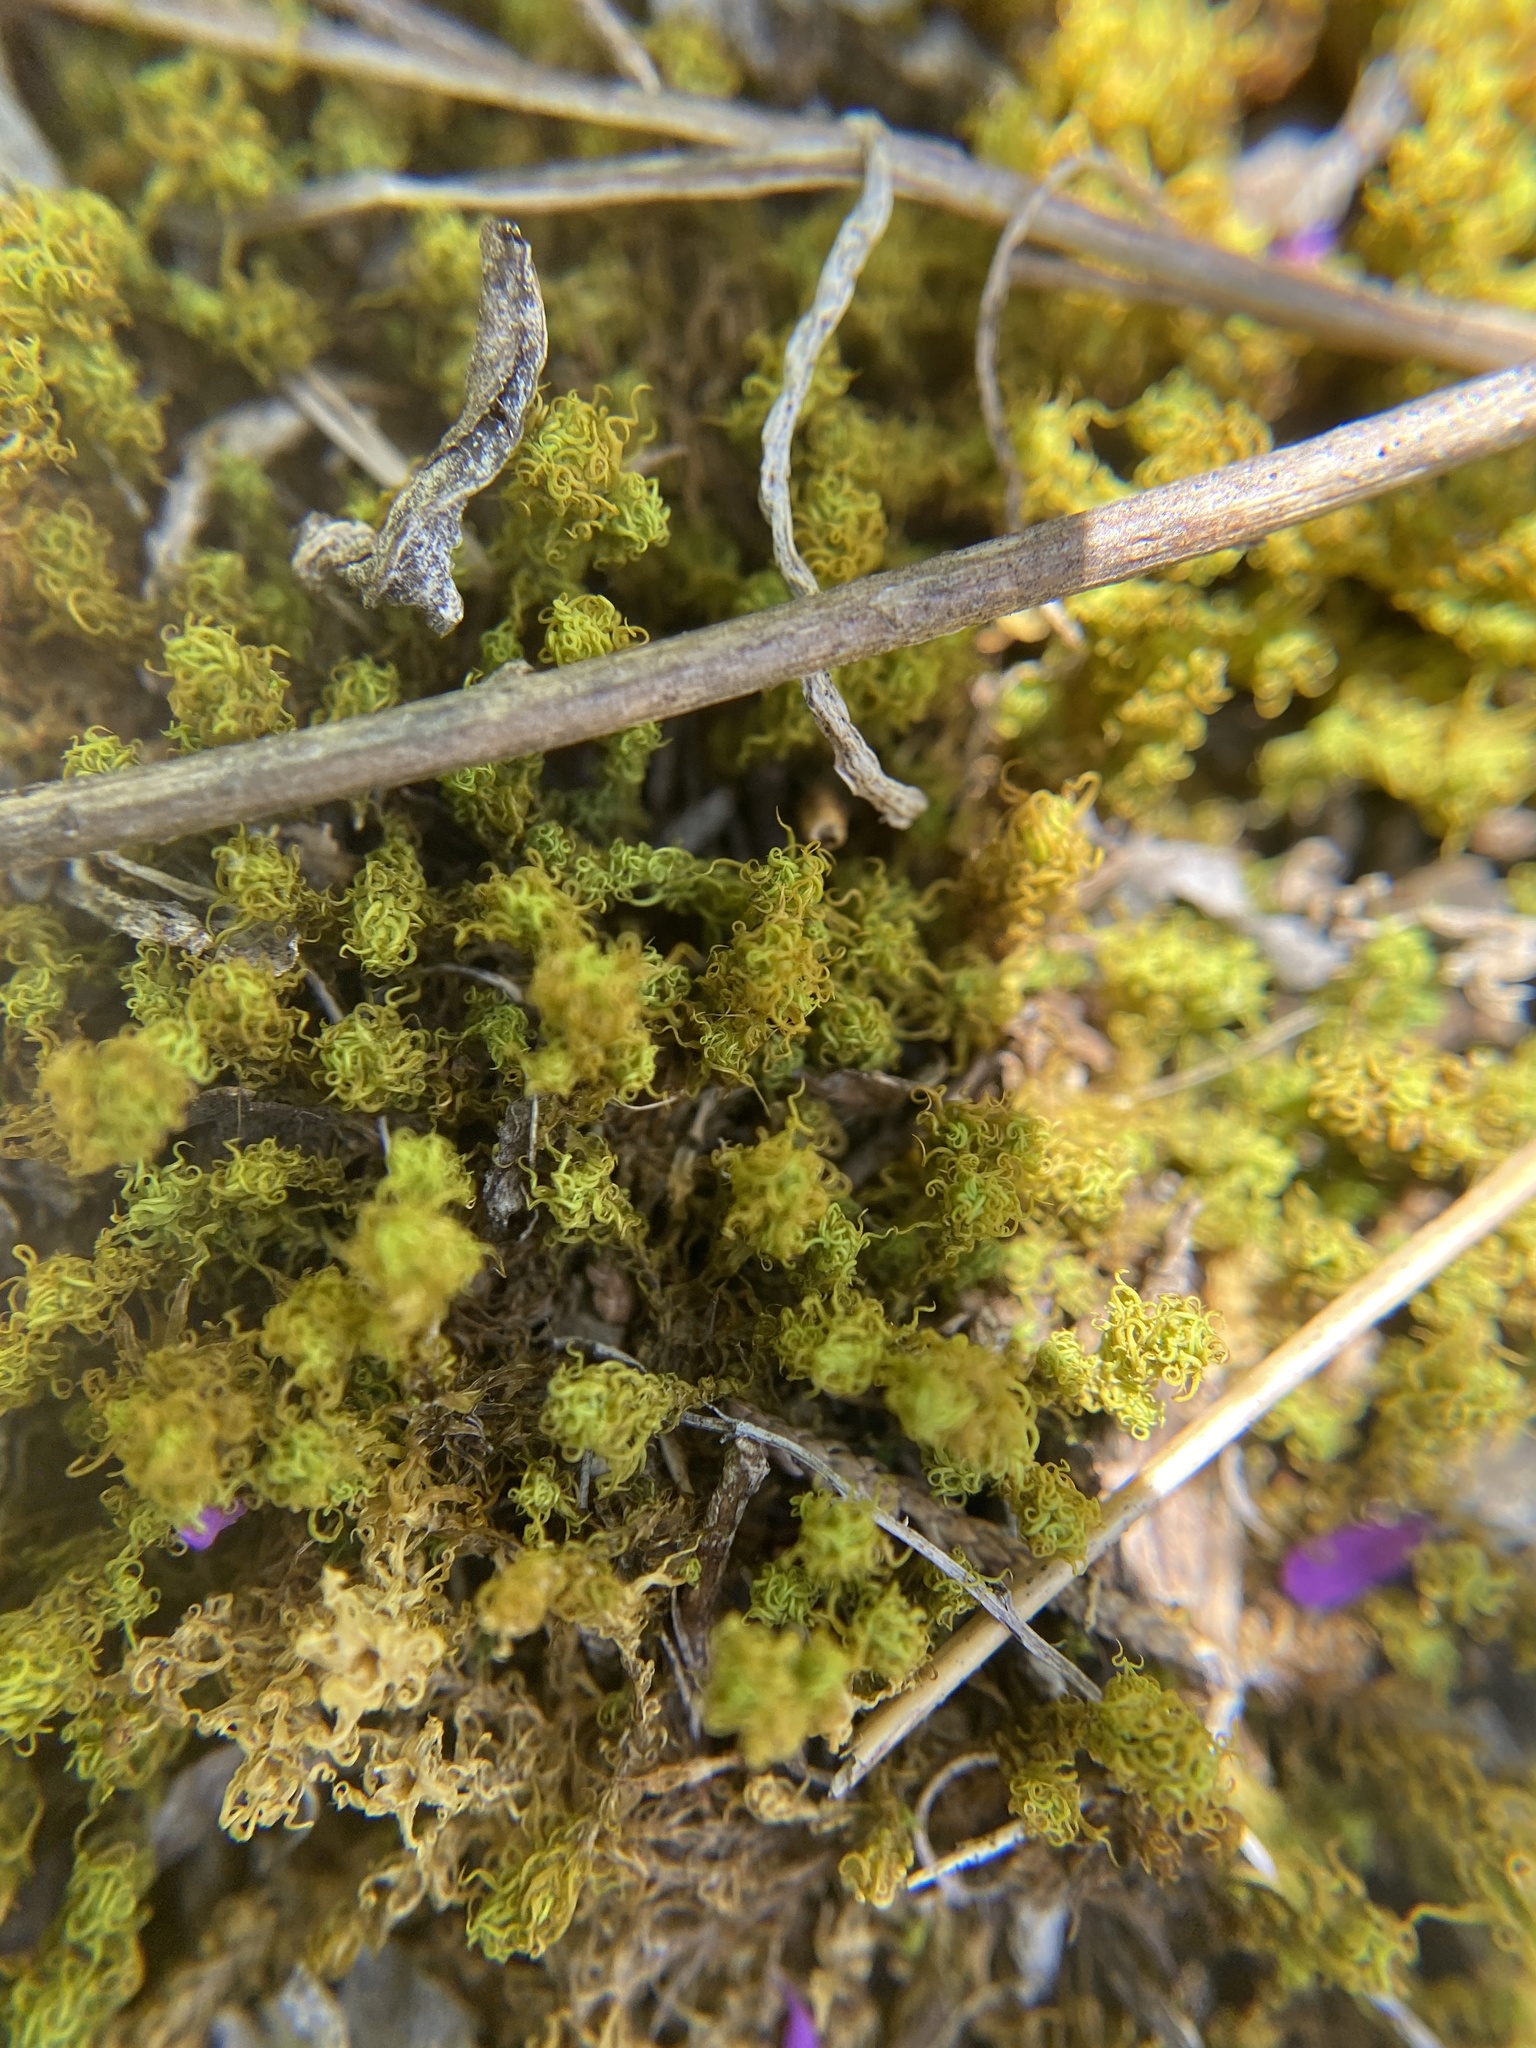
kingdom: Plantae
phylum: Bryophyta
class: Bryopsida
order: Pottiales
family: Pottiaceae
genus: Pleurochaete
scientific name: Pleurochaete luteola
